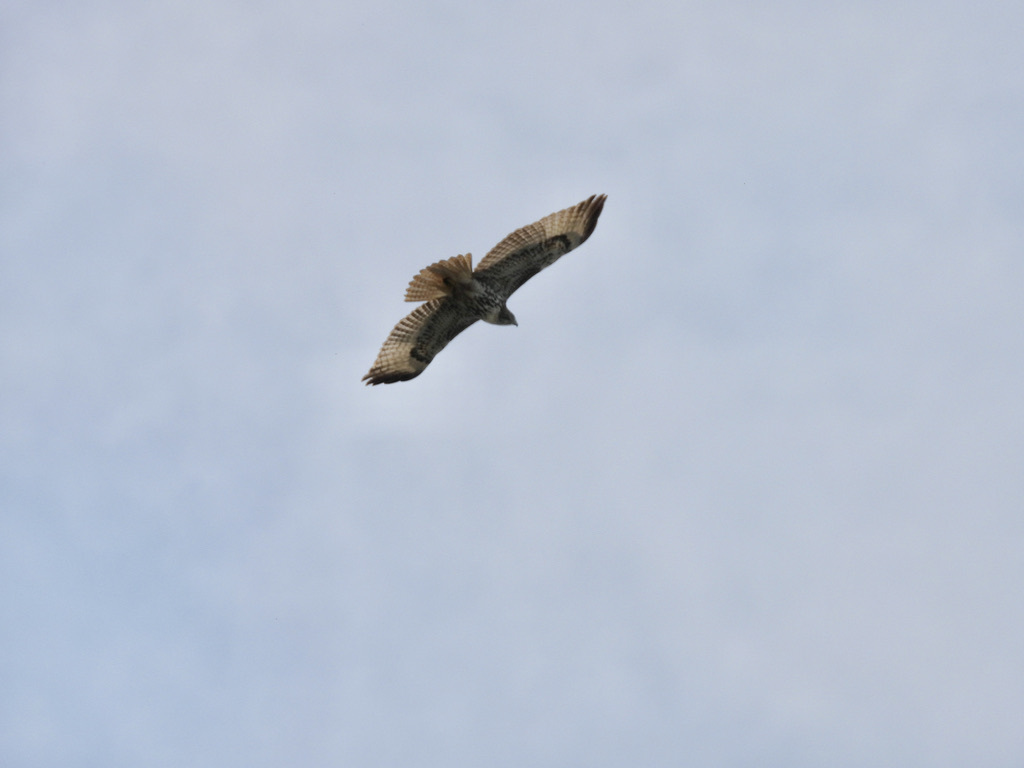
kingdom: Animalia
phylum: Chordata
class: Aves
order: Accipitriformes
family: Accipitridae
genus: Buteo
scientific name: Buteo jamaicensis
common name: Red-tailed hawk
